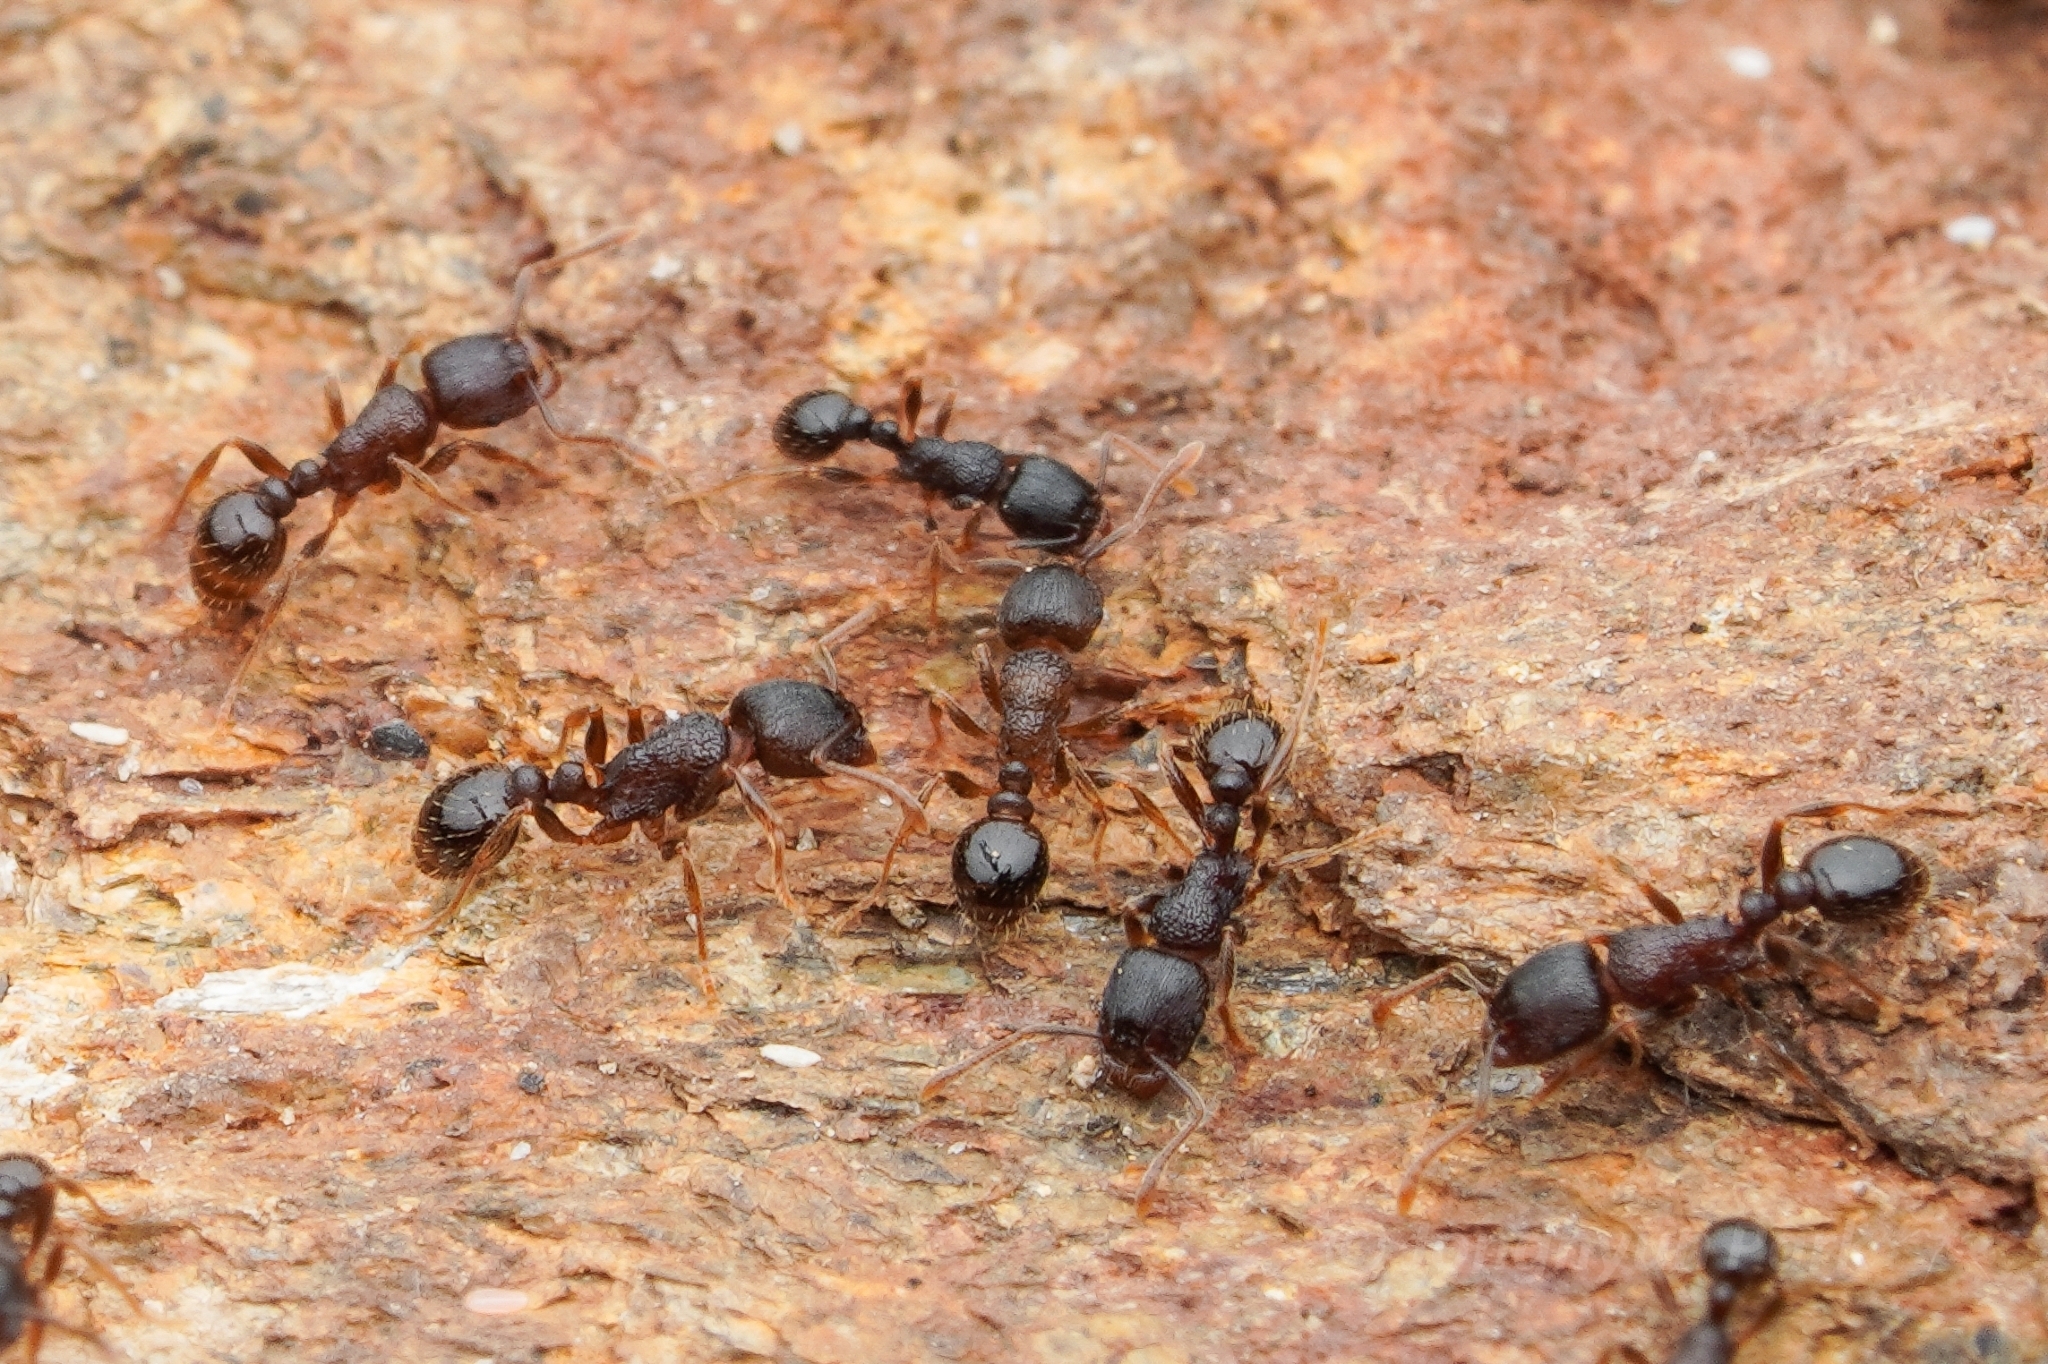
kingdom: Animalia
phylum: Arthropoda
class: Insecta
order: Hymenoptera
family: Formicidae
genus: Tetramorium
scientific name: Tetramorium tsushimae
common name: Ant
